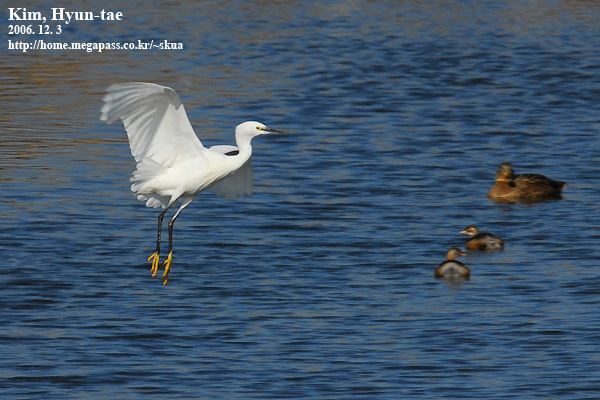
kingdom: Animalia
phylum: Chordata
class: Aves
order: Pelecaniformes
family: Ardeidae
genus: Egretta
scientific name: Egretta garzetta
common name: Little egret
